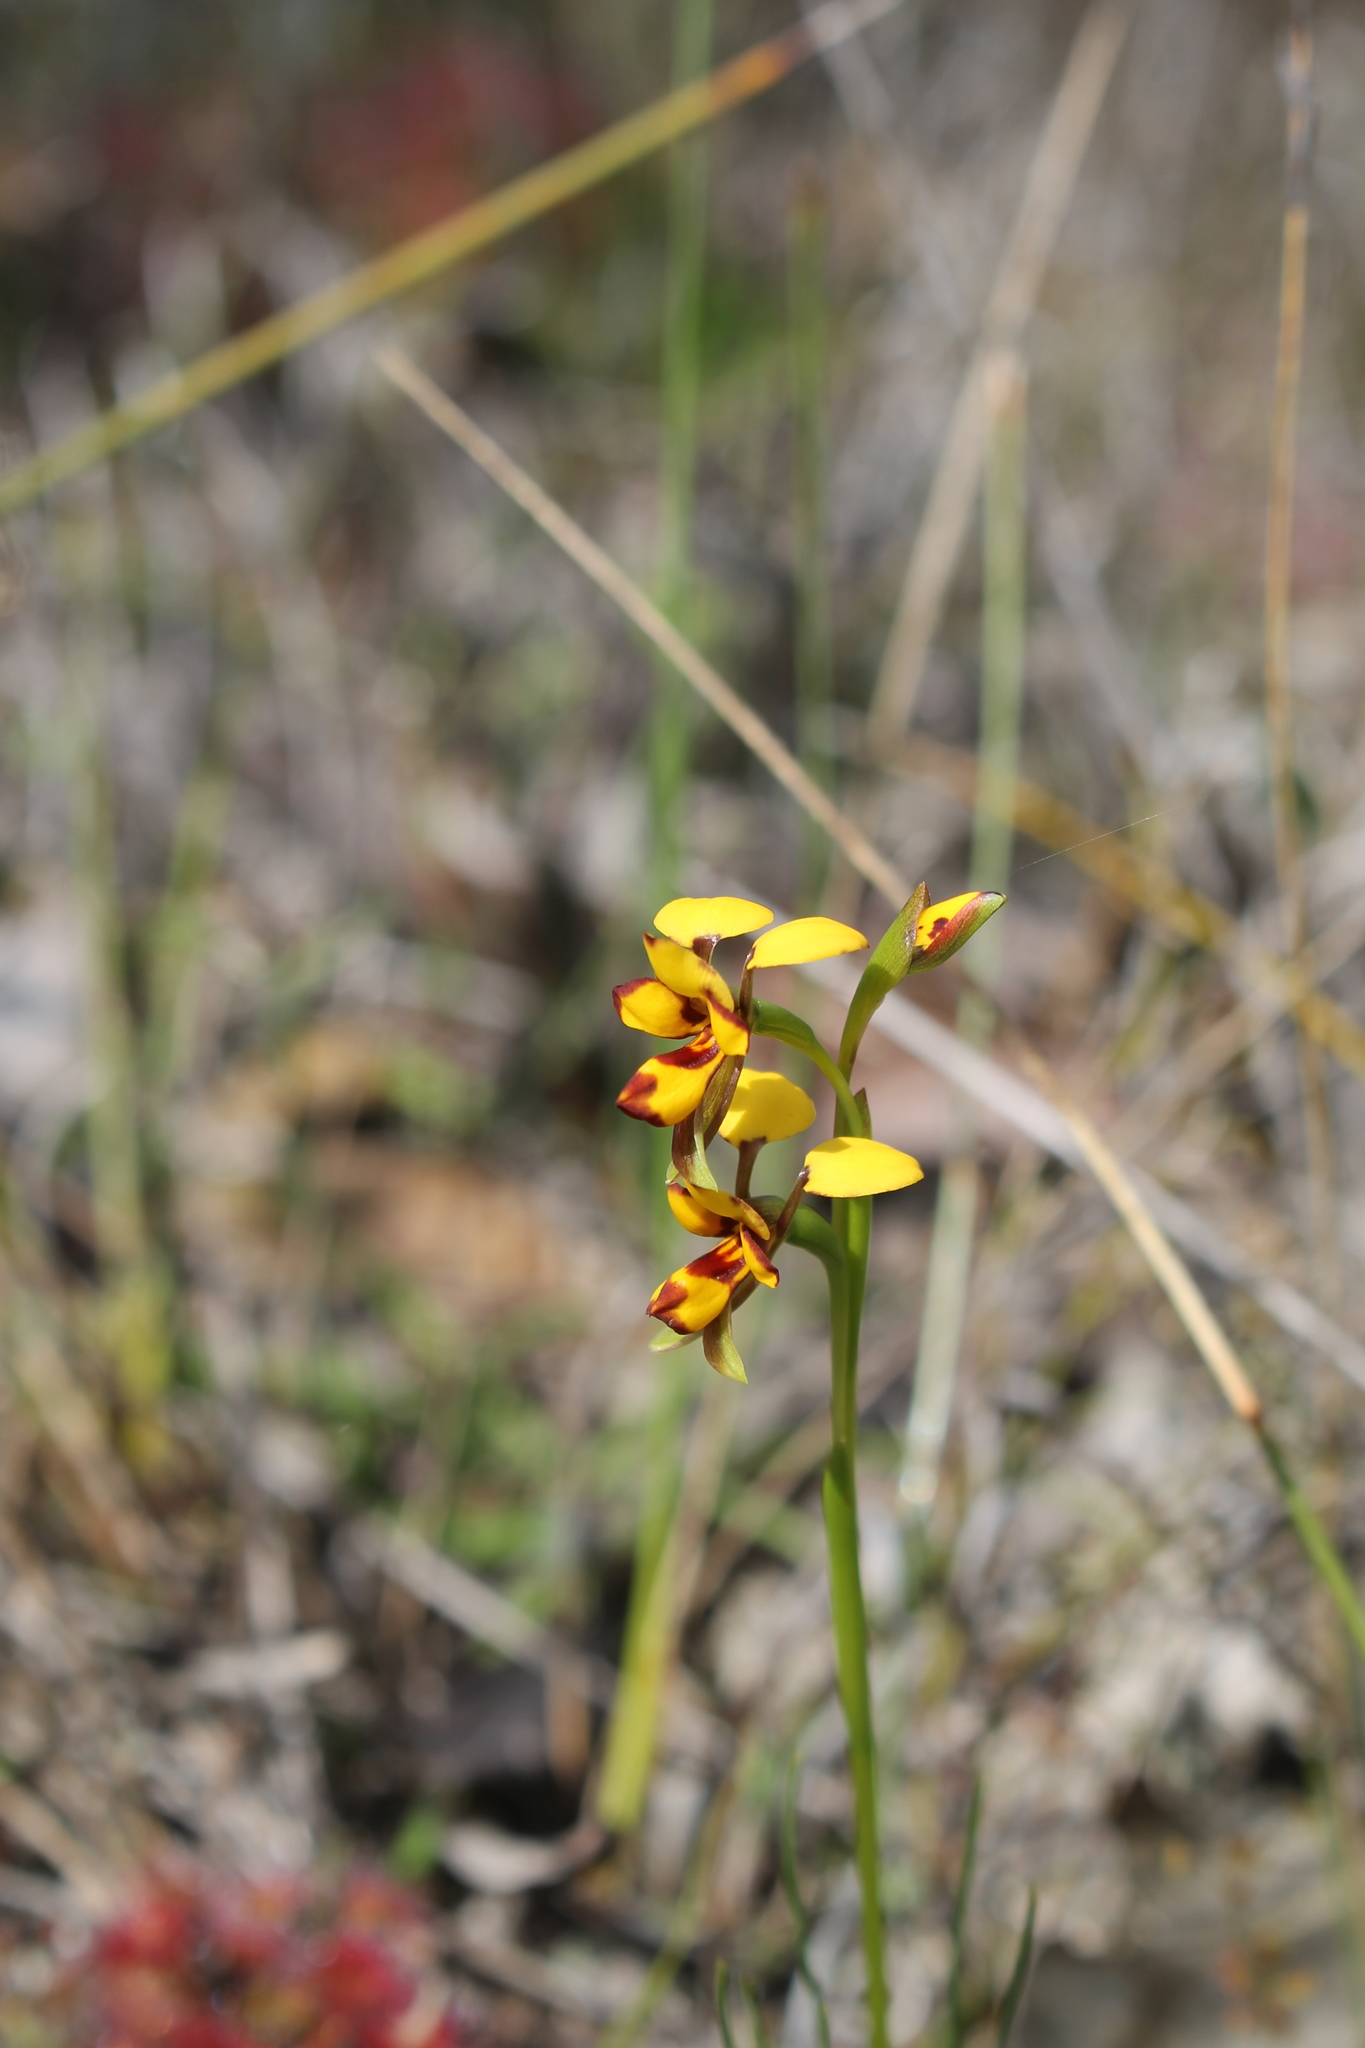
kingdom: Plantae
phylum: Tracheophyta
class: Liliopsida
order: Asparagales
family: Orchidaceae
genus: Diuris
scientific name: Diuris decrementum
